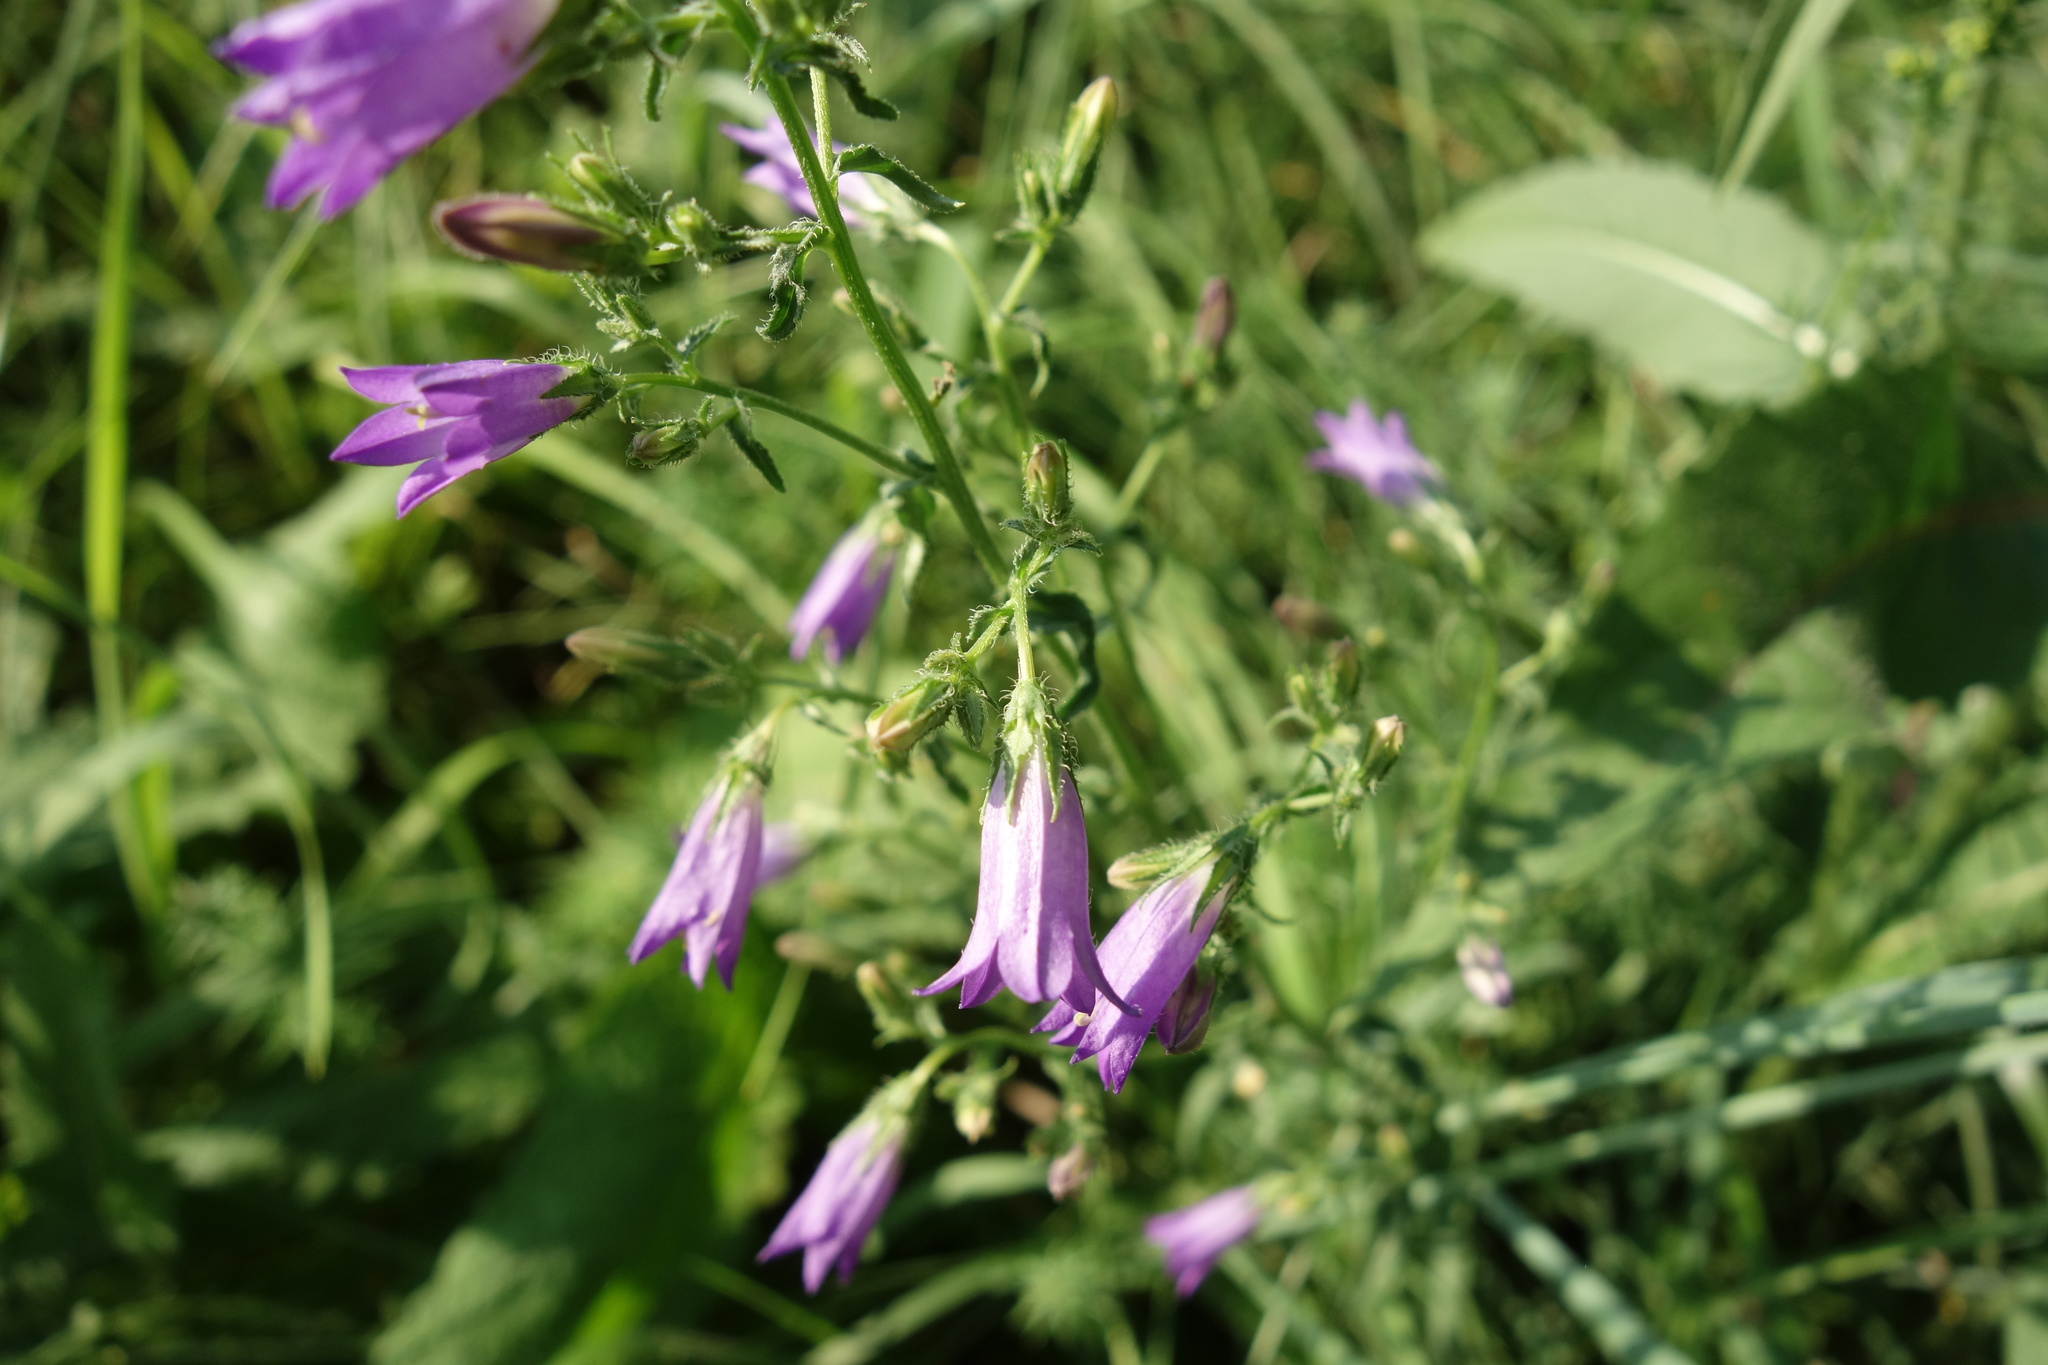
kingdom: Plantae
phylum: Tracheophyta
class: Magnoliopsida
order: Asterales
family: Campanulaceae
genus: Campanula
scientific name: Campanula sibirica
